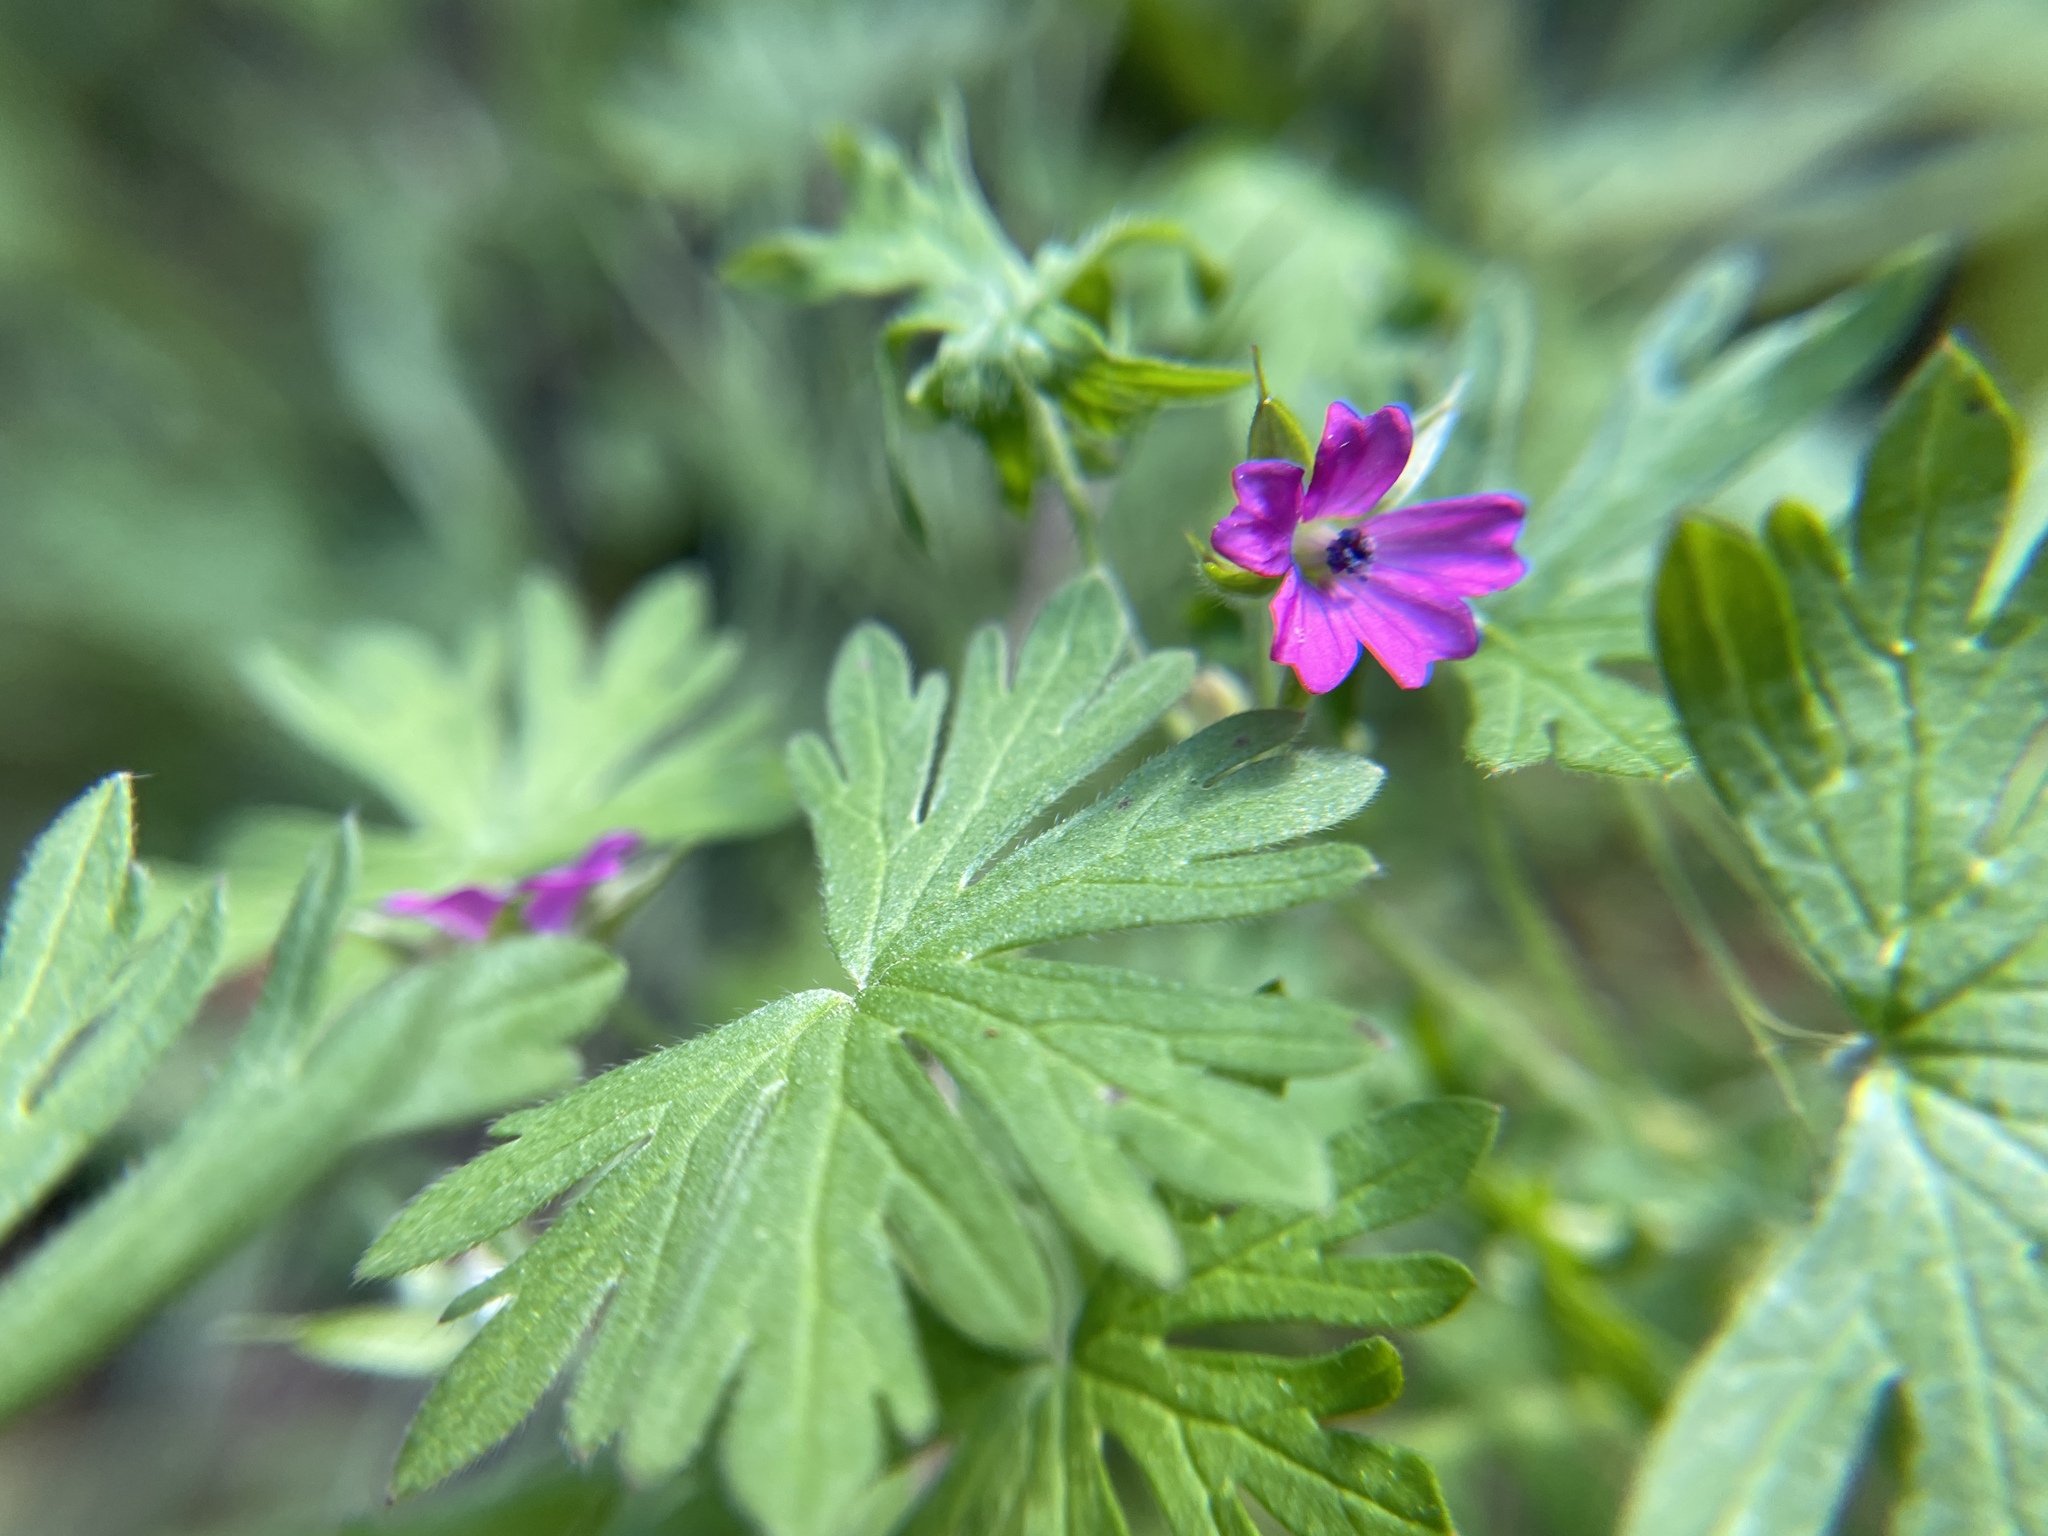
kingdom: Plantae
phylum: Tracheophyta
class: Magnoliopsida
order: Geraniales
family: Geraniaceae
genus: Geranium
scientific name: Geranium dissectum
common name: Cut-leaved crane's-bill
